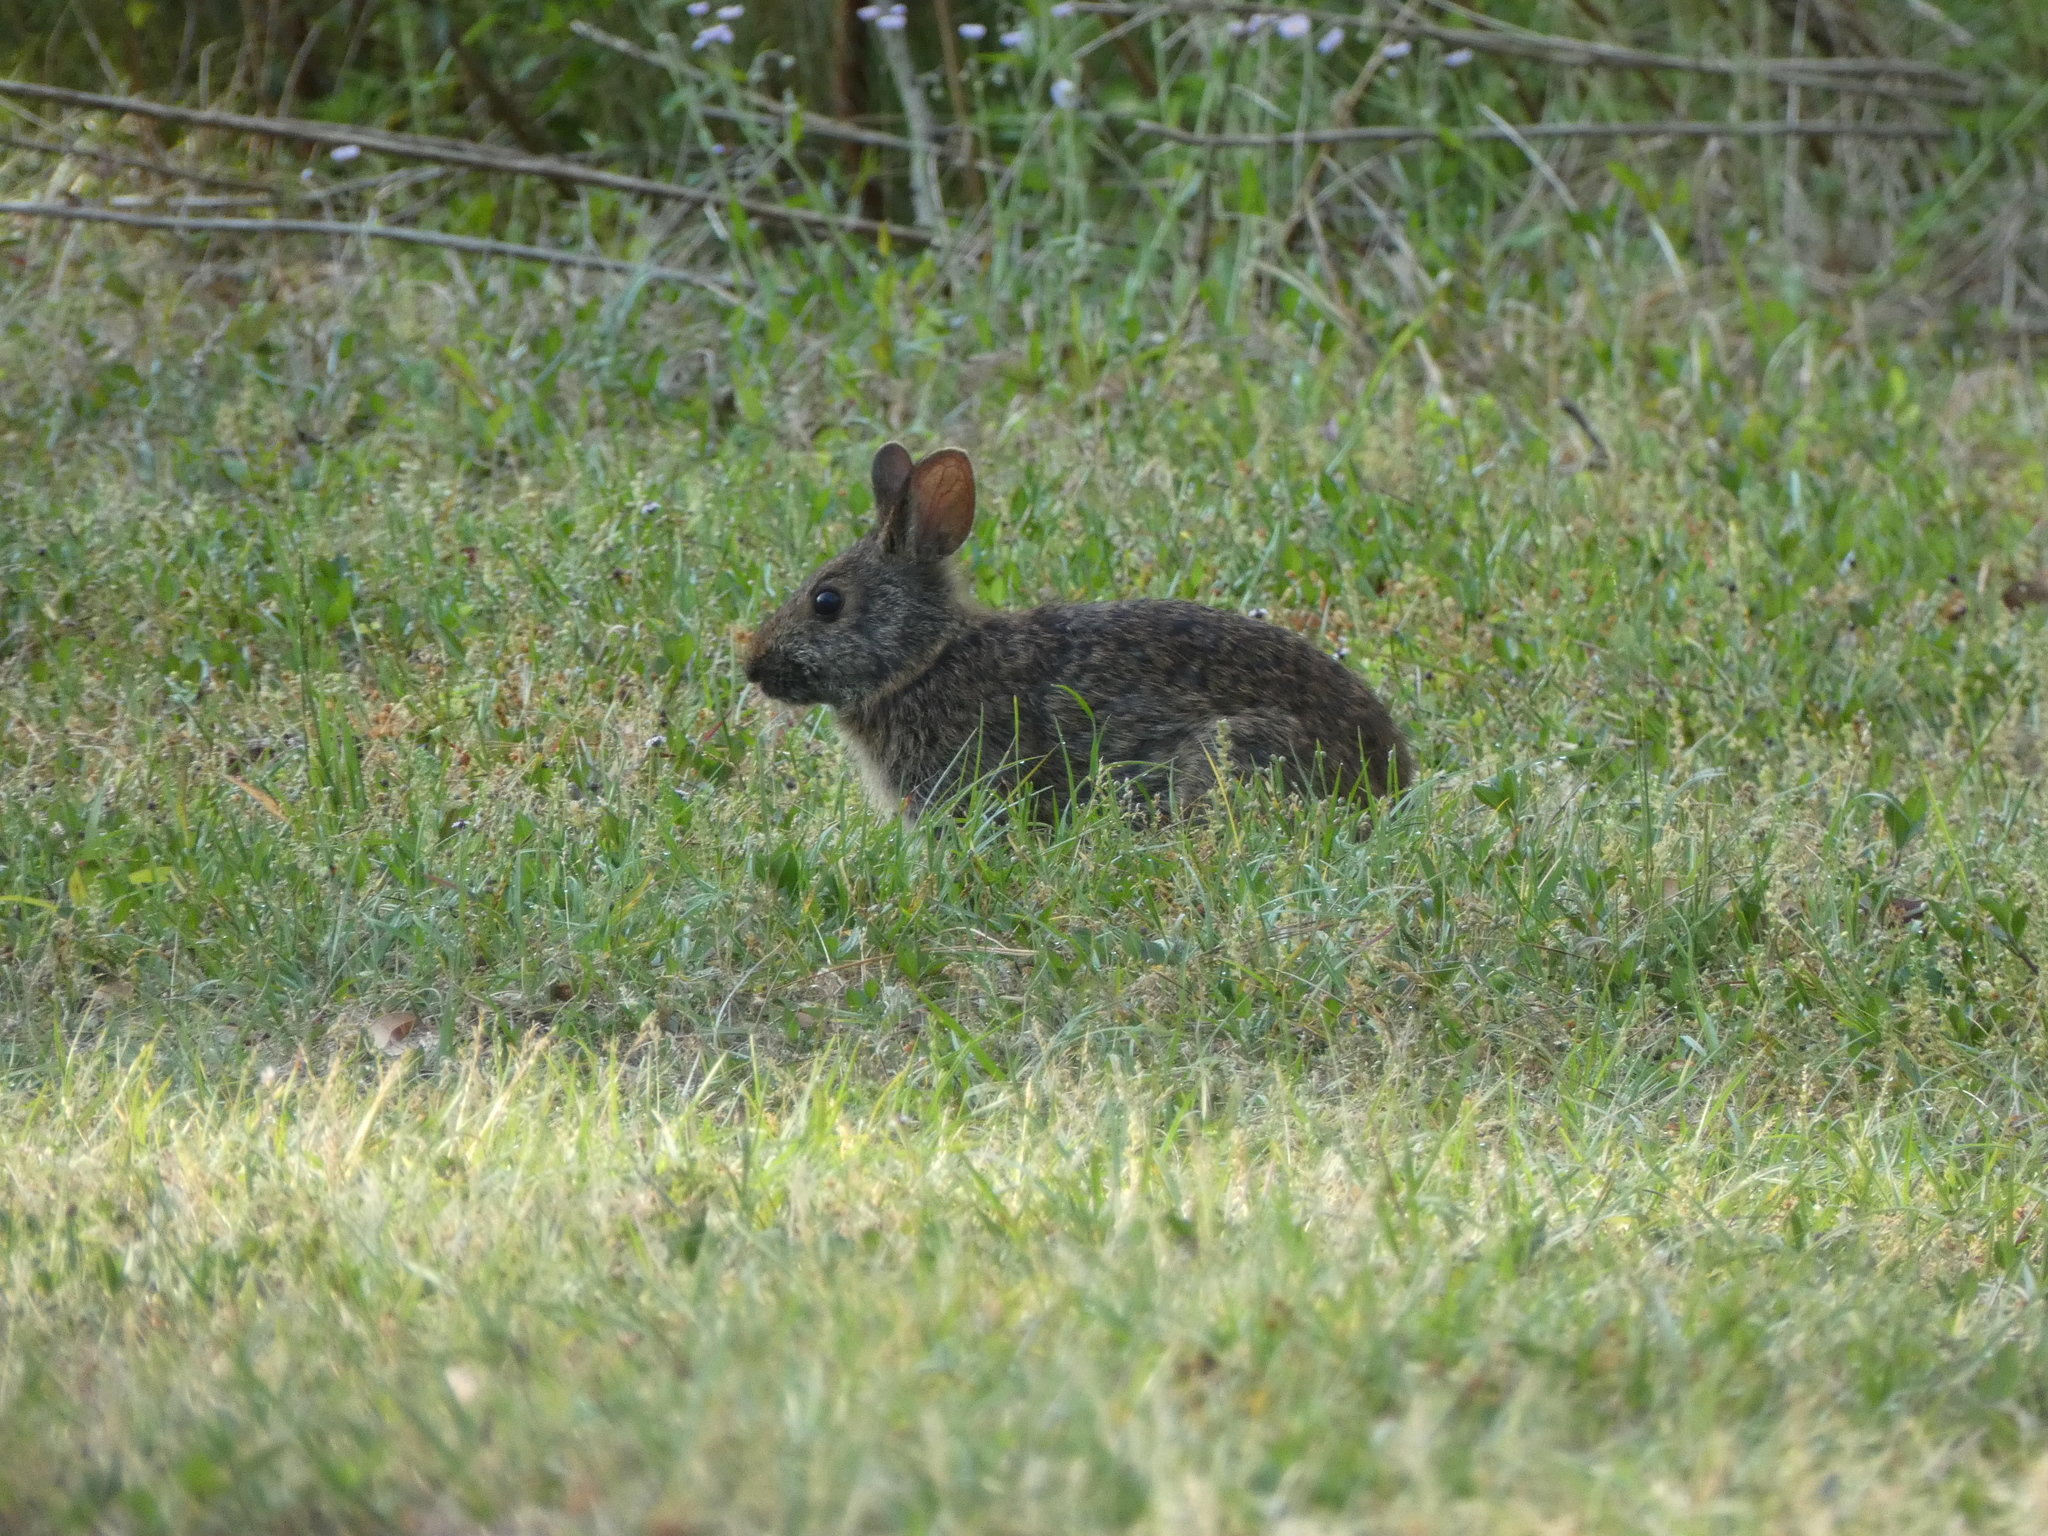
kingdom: Animalia
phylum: Chordata
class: Mammalia
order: Lagomorpha
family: Leporidae
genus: Sylvilagus
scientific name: Sylvilagus palustris
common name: Marsh rabbit
